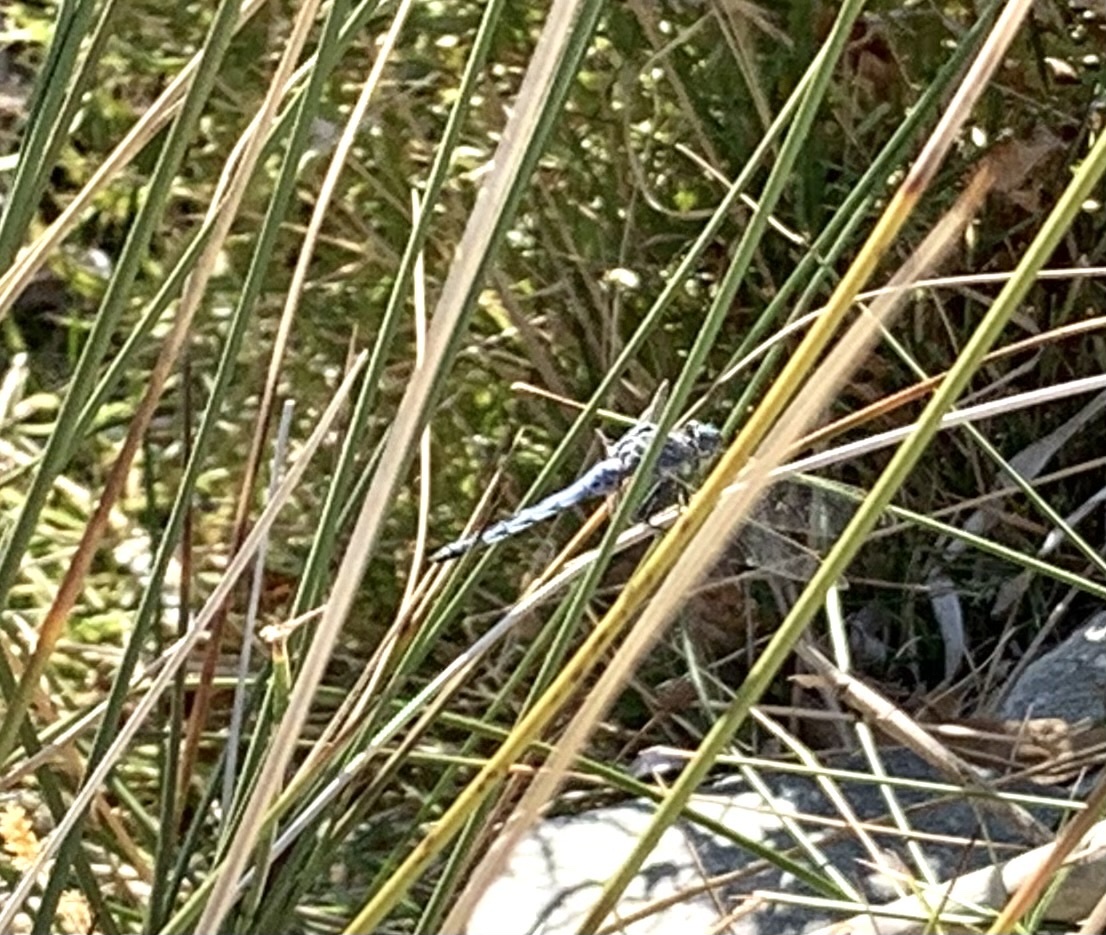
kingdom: Animalia
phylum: Arthropoda
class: Insecta
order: Odonata
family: Libellulidae
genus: Orthetrum
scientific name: Orthetrum coerulescens
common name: Keeled skimmer
